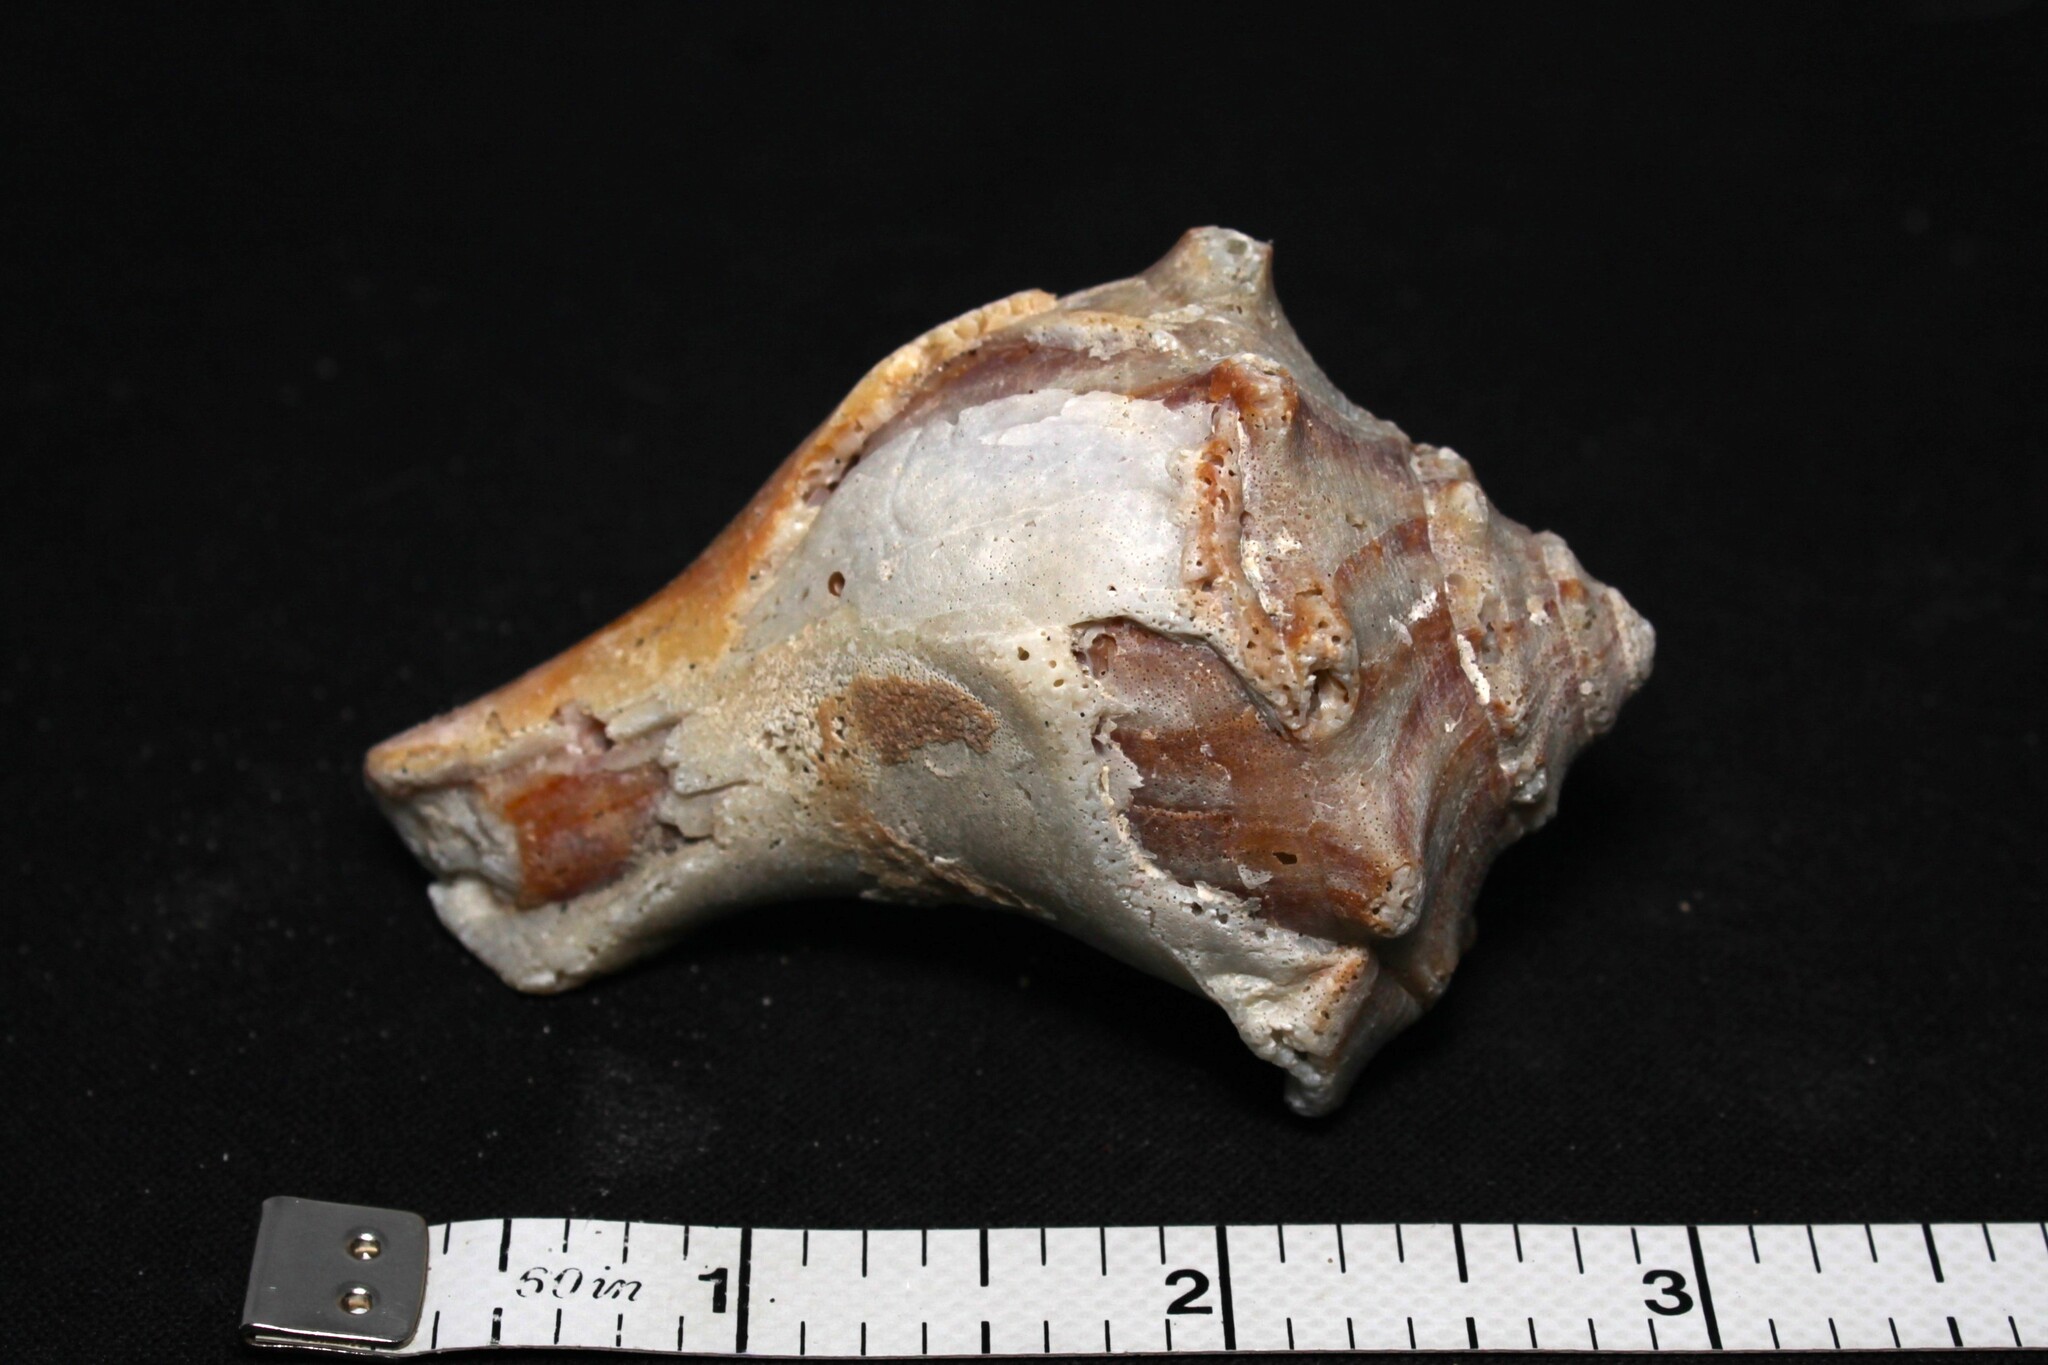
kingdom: Animalia
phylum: Mollusca
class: Gastropoda
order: Neogastropoda
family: Busyconidae
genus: Busycon
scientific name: Busycon carica
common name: Knobbed whelk
